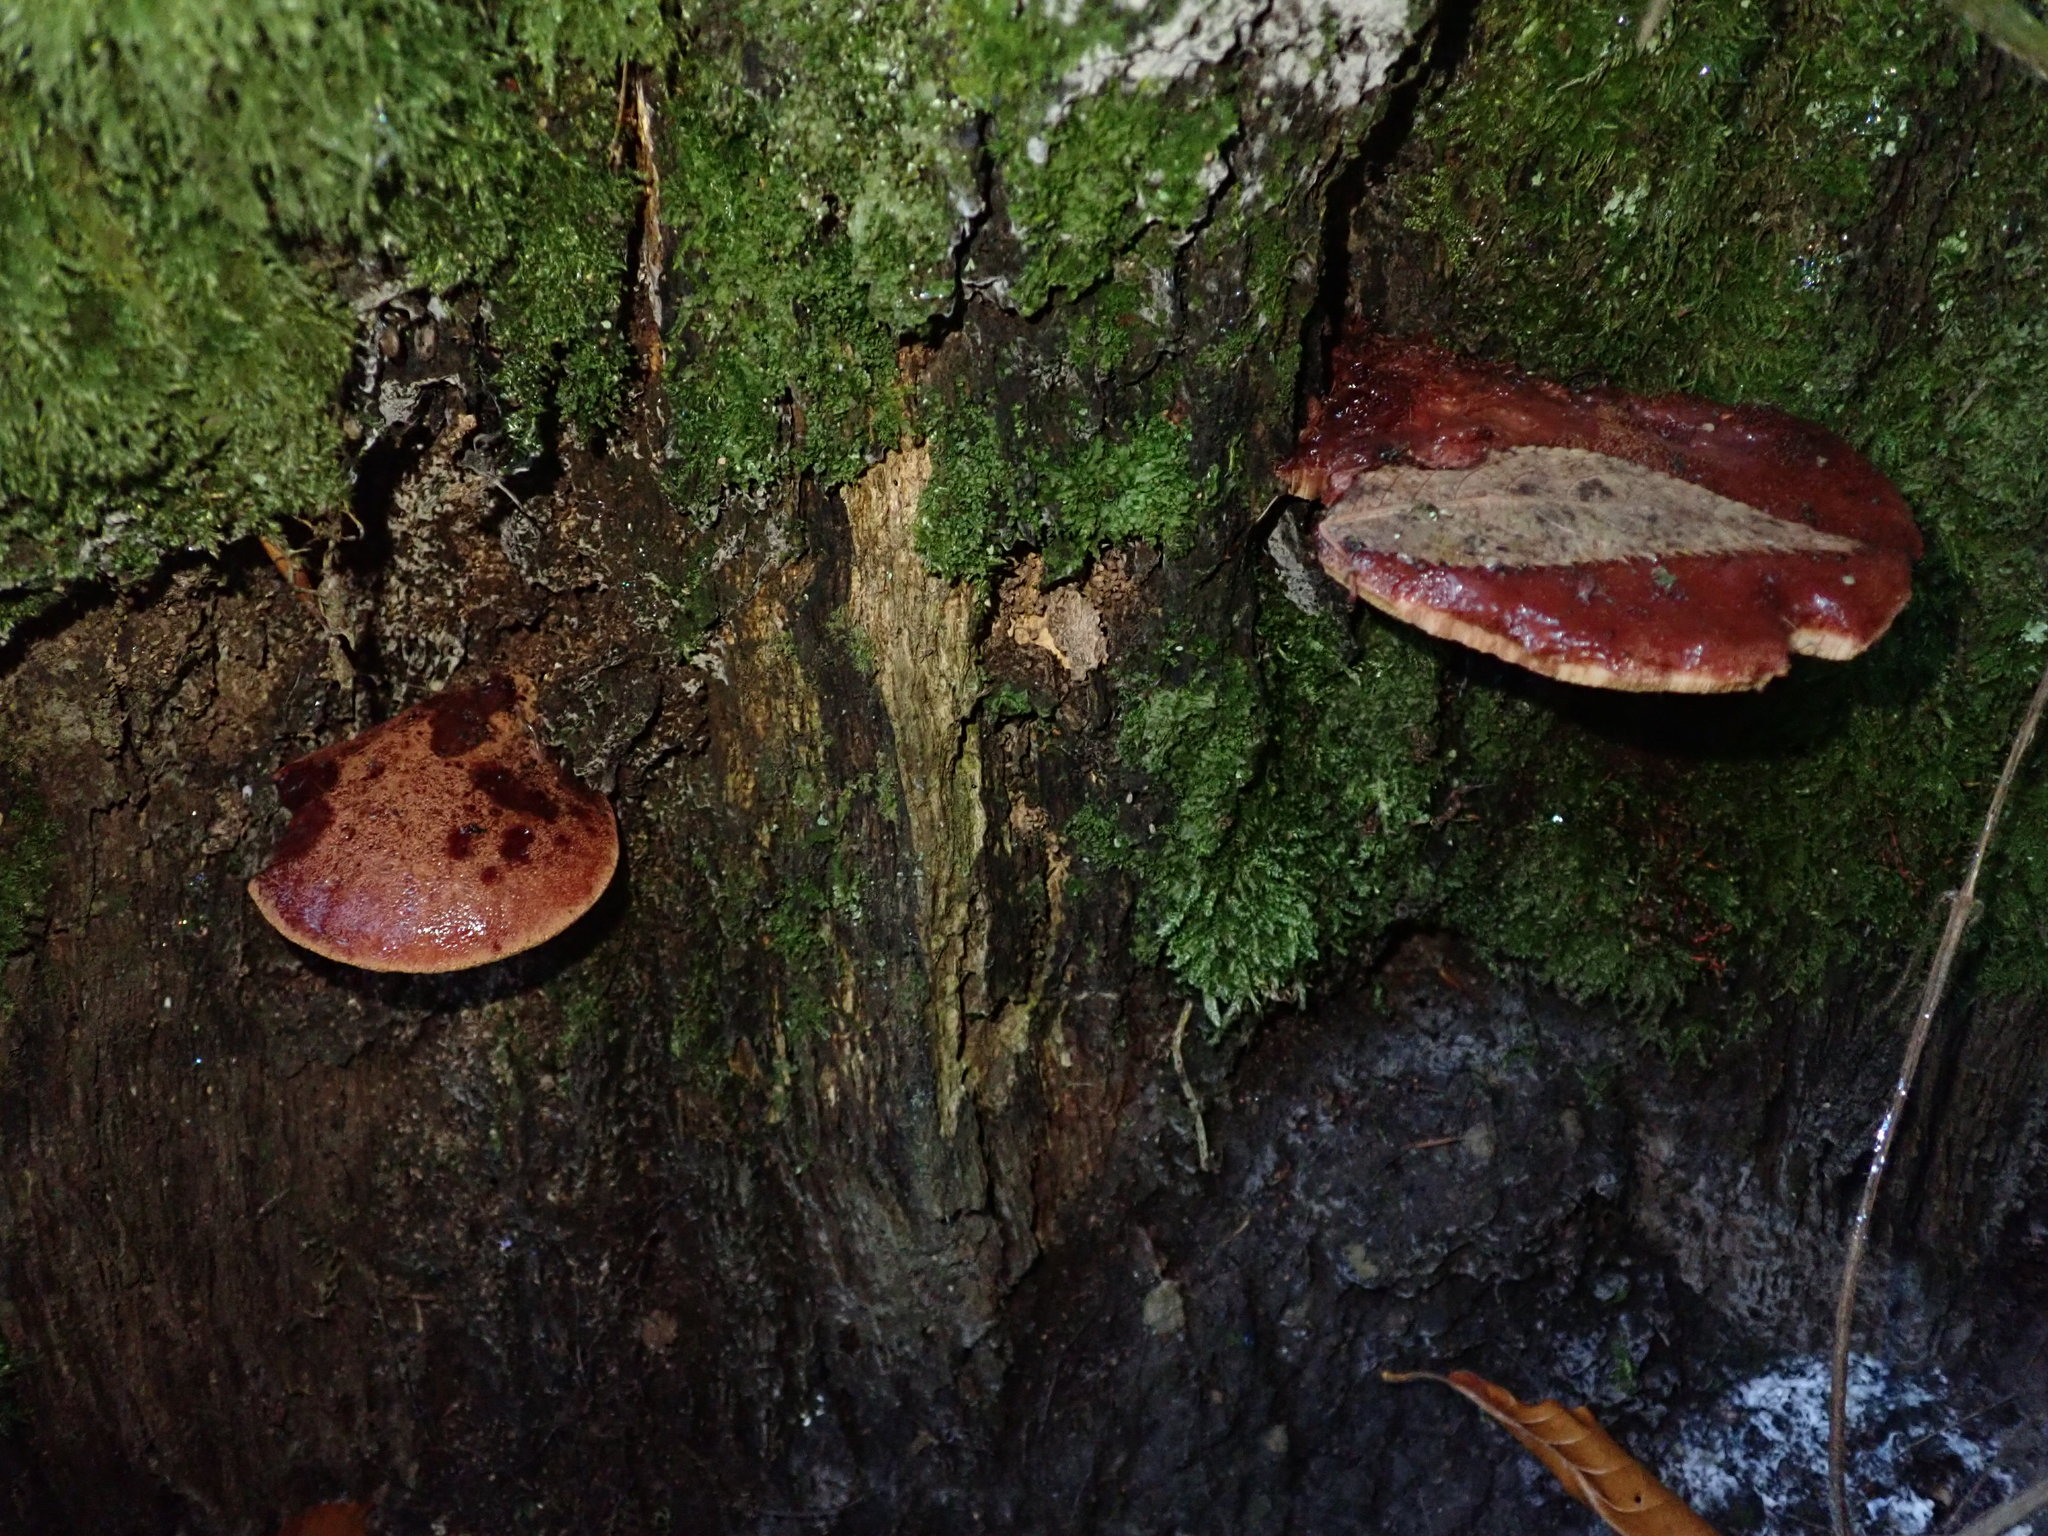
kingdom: Fungi
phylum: Basidiomycota
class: Agaricomycetes
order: Agaricales
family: Fistulinaceae
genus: Fistulina
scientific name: Fistulina hepatica
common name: Beef-steak fungus
